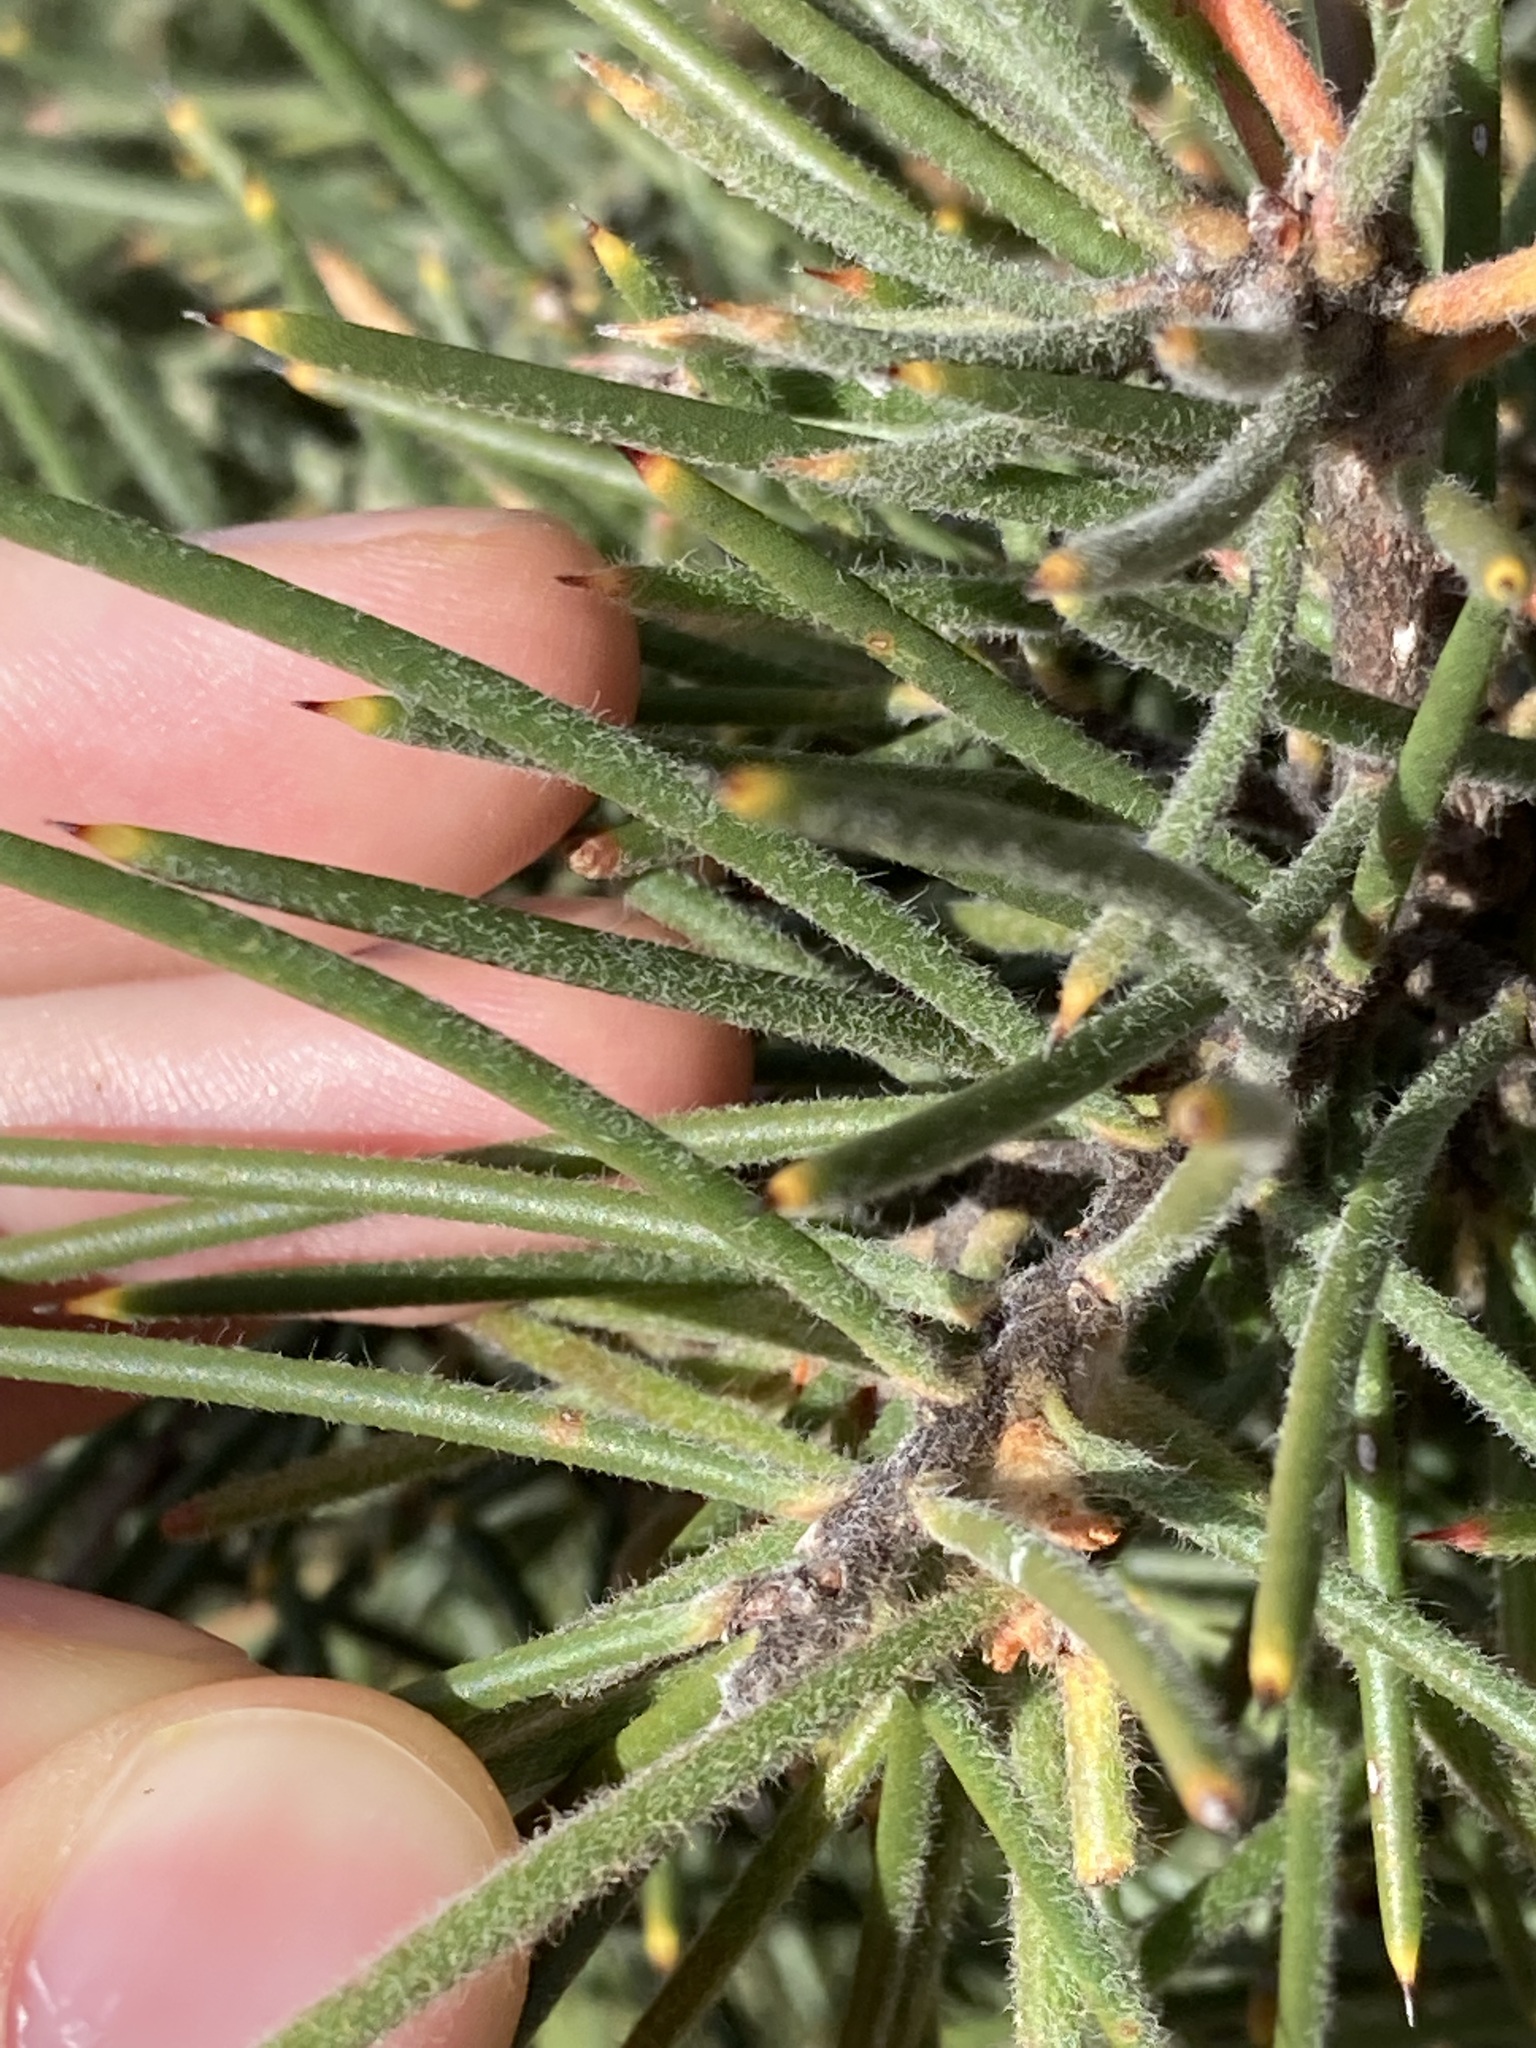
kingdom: Plantae
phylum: Tracheophyta
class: Magnoliopsida
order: Proteales
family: Proteaceae
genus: Hakea
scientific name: Hakea gibbosa
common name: Rock hakea
